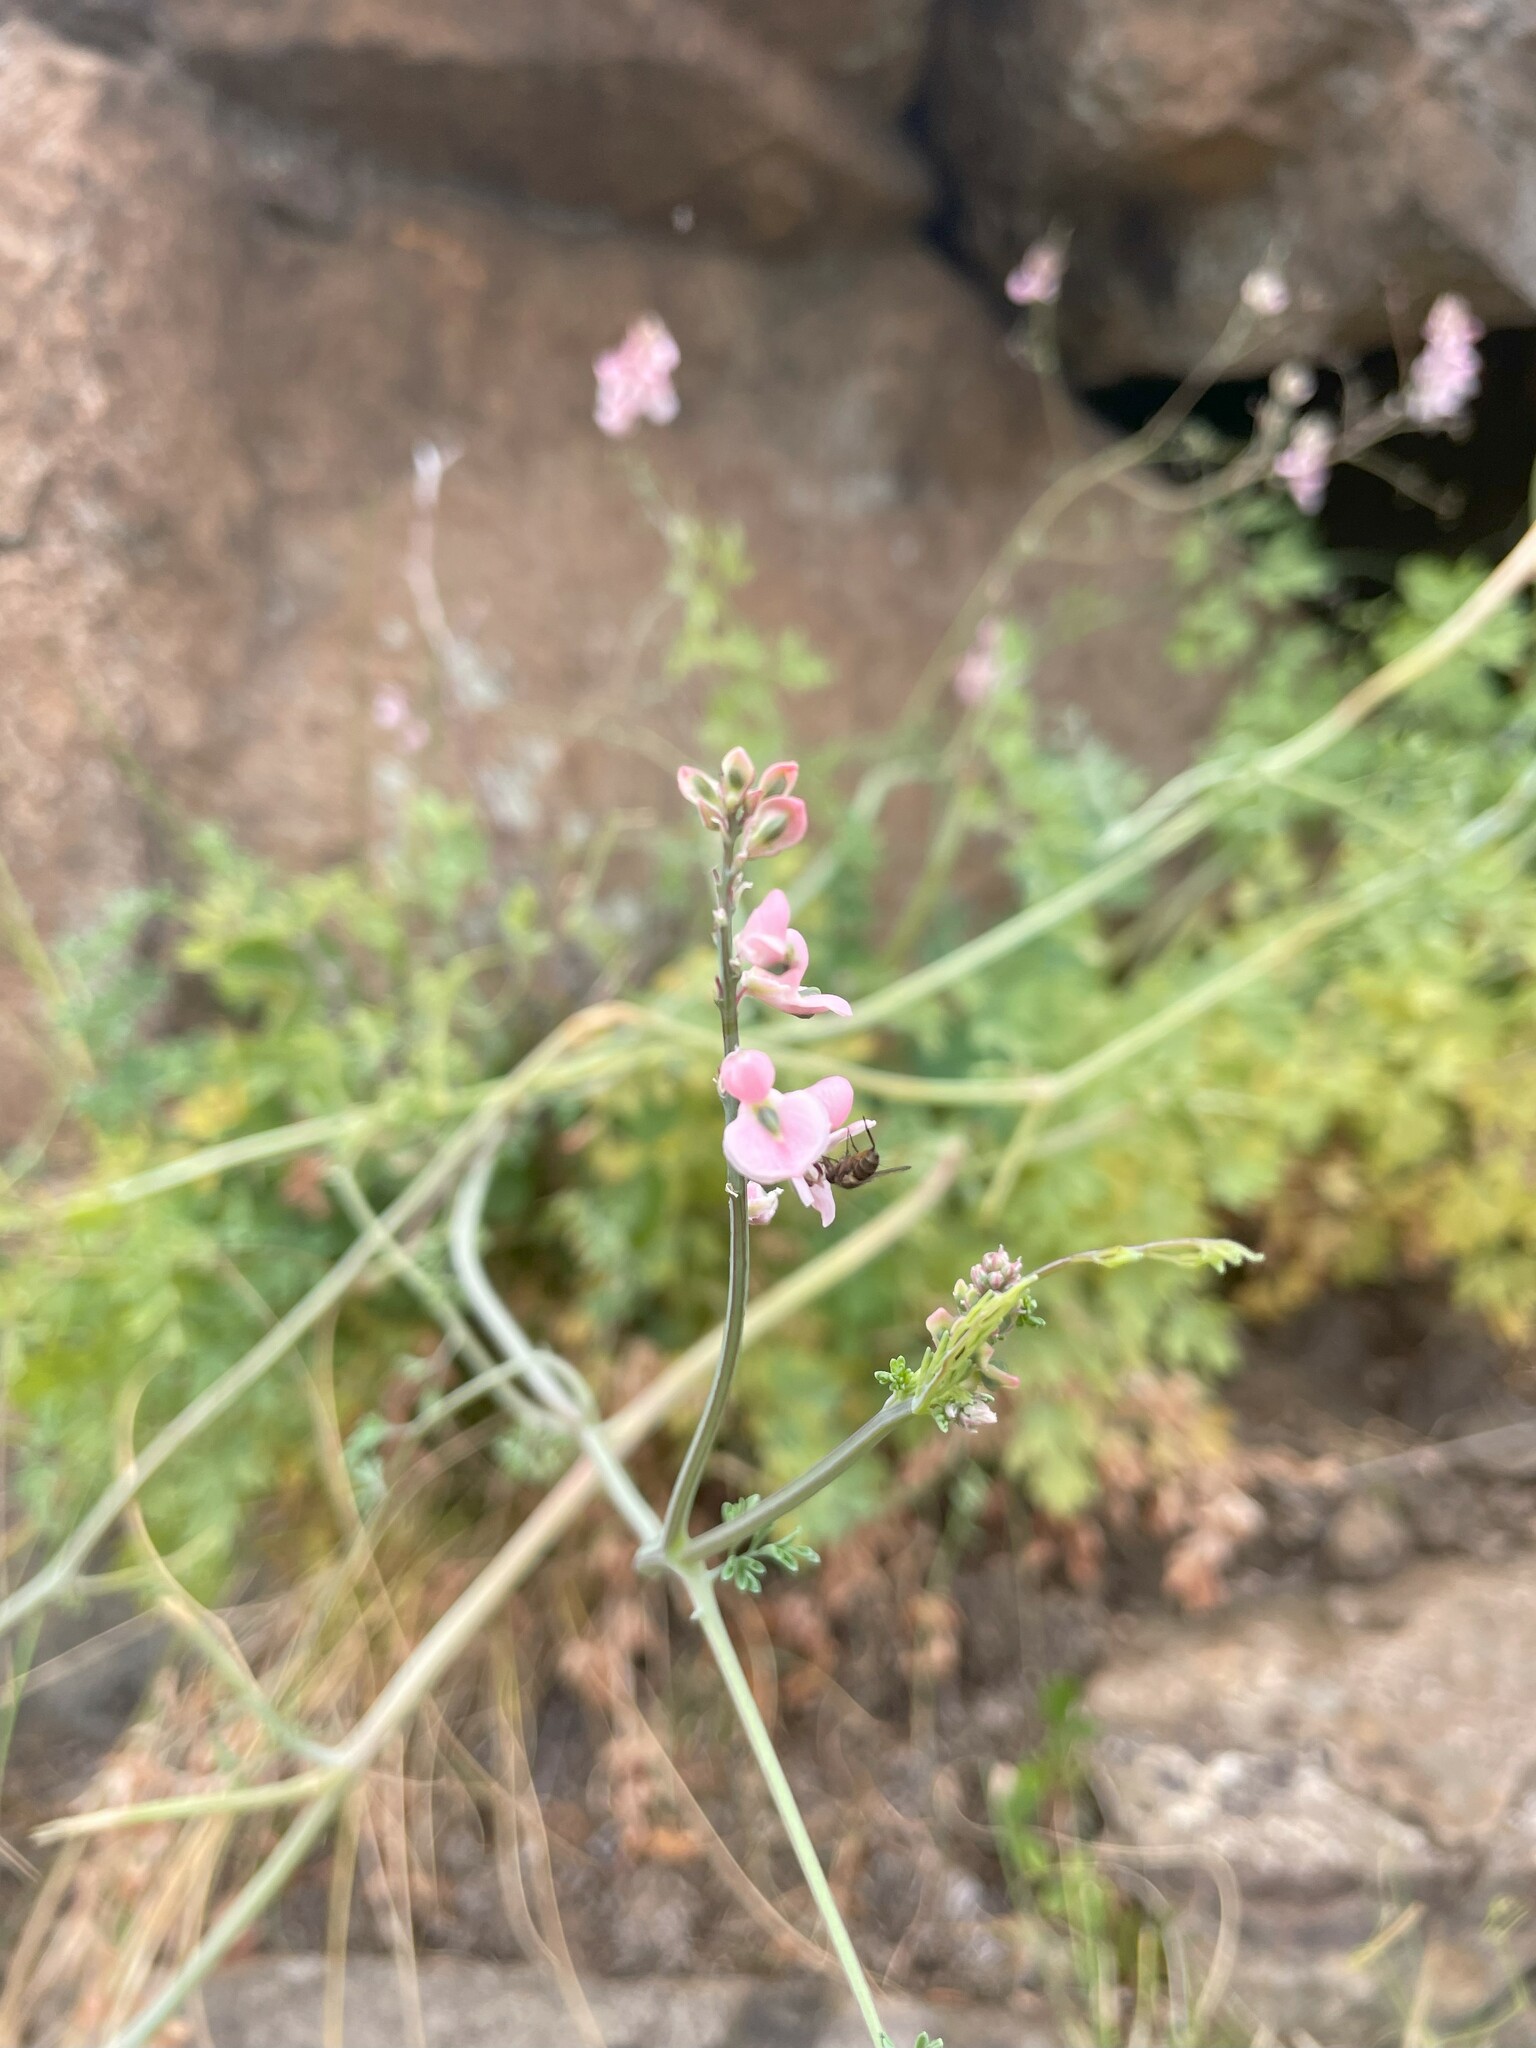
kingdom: Plantae
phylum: Tracheophyta
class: Magnoliopsida
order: Ranunculales
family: Papaveraceae
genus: Cysticapnos
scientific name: Cysticapnos pruinosa
